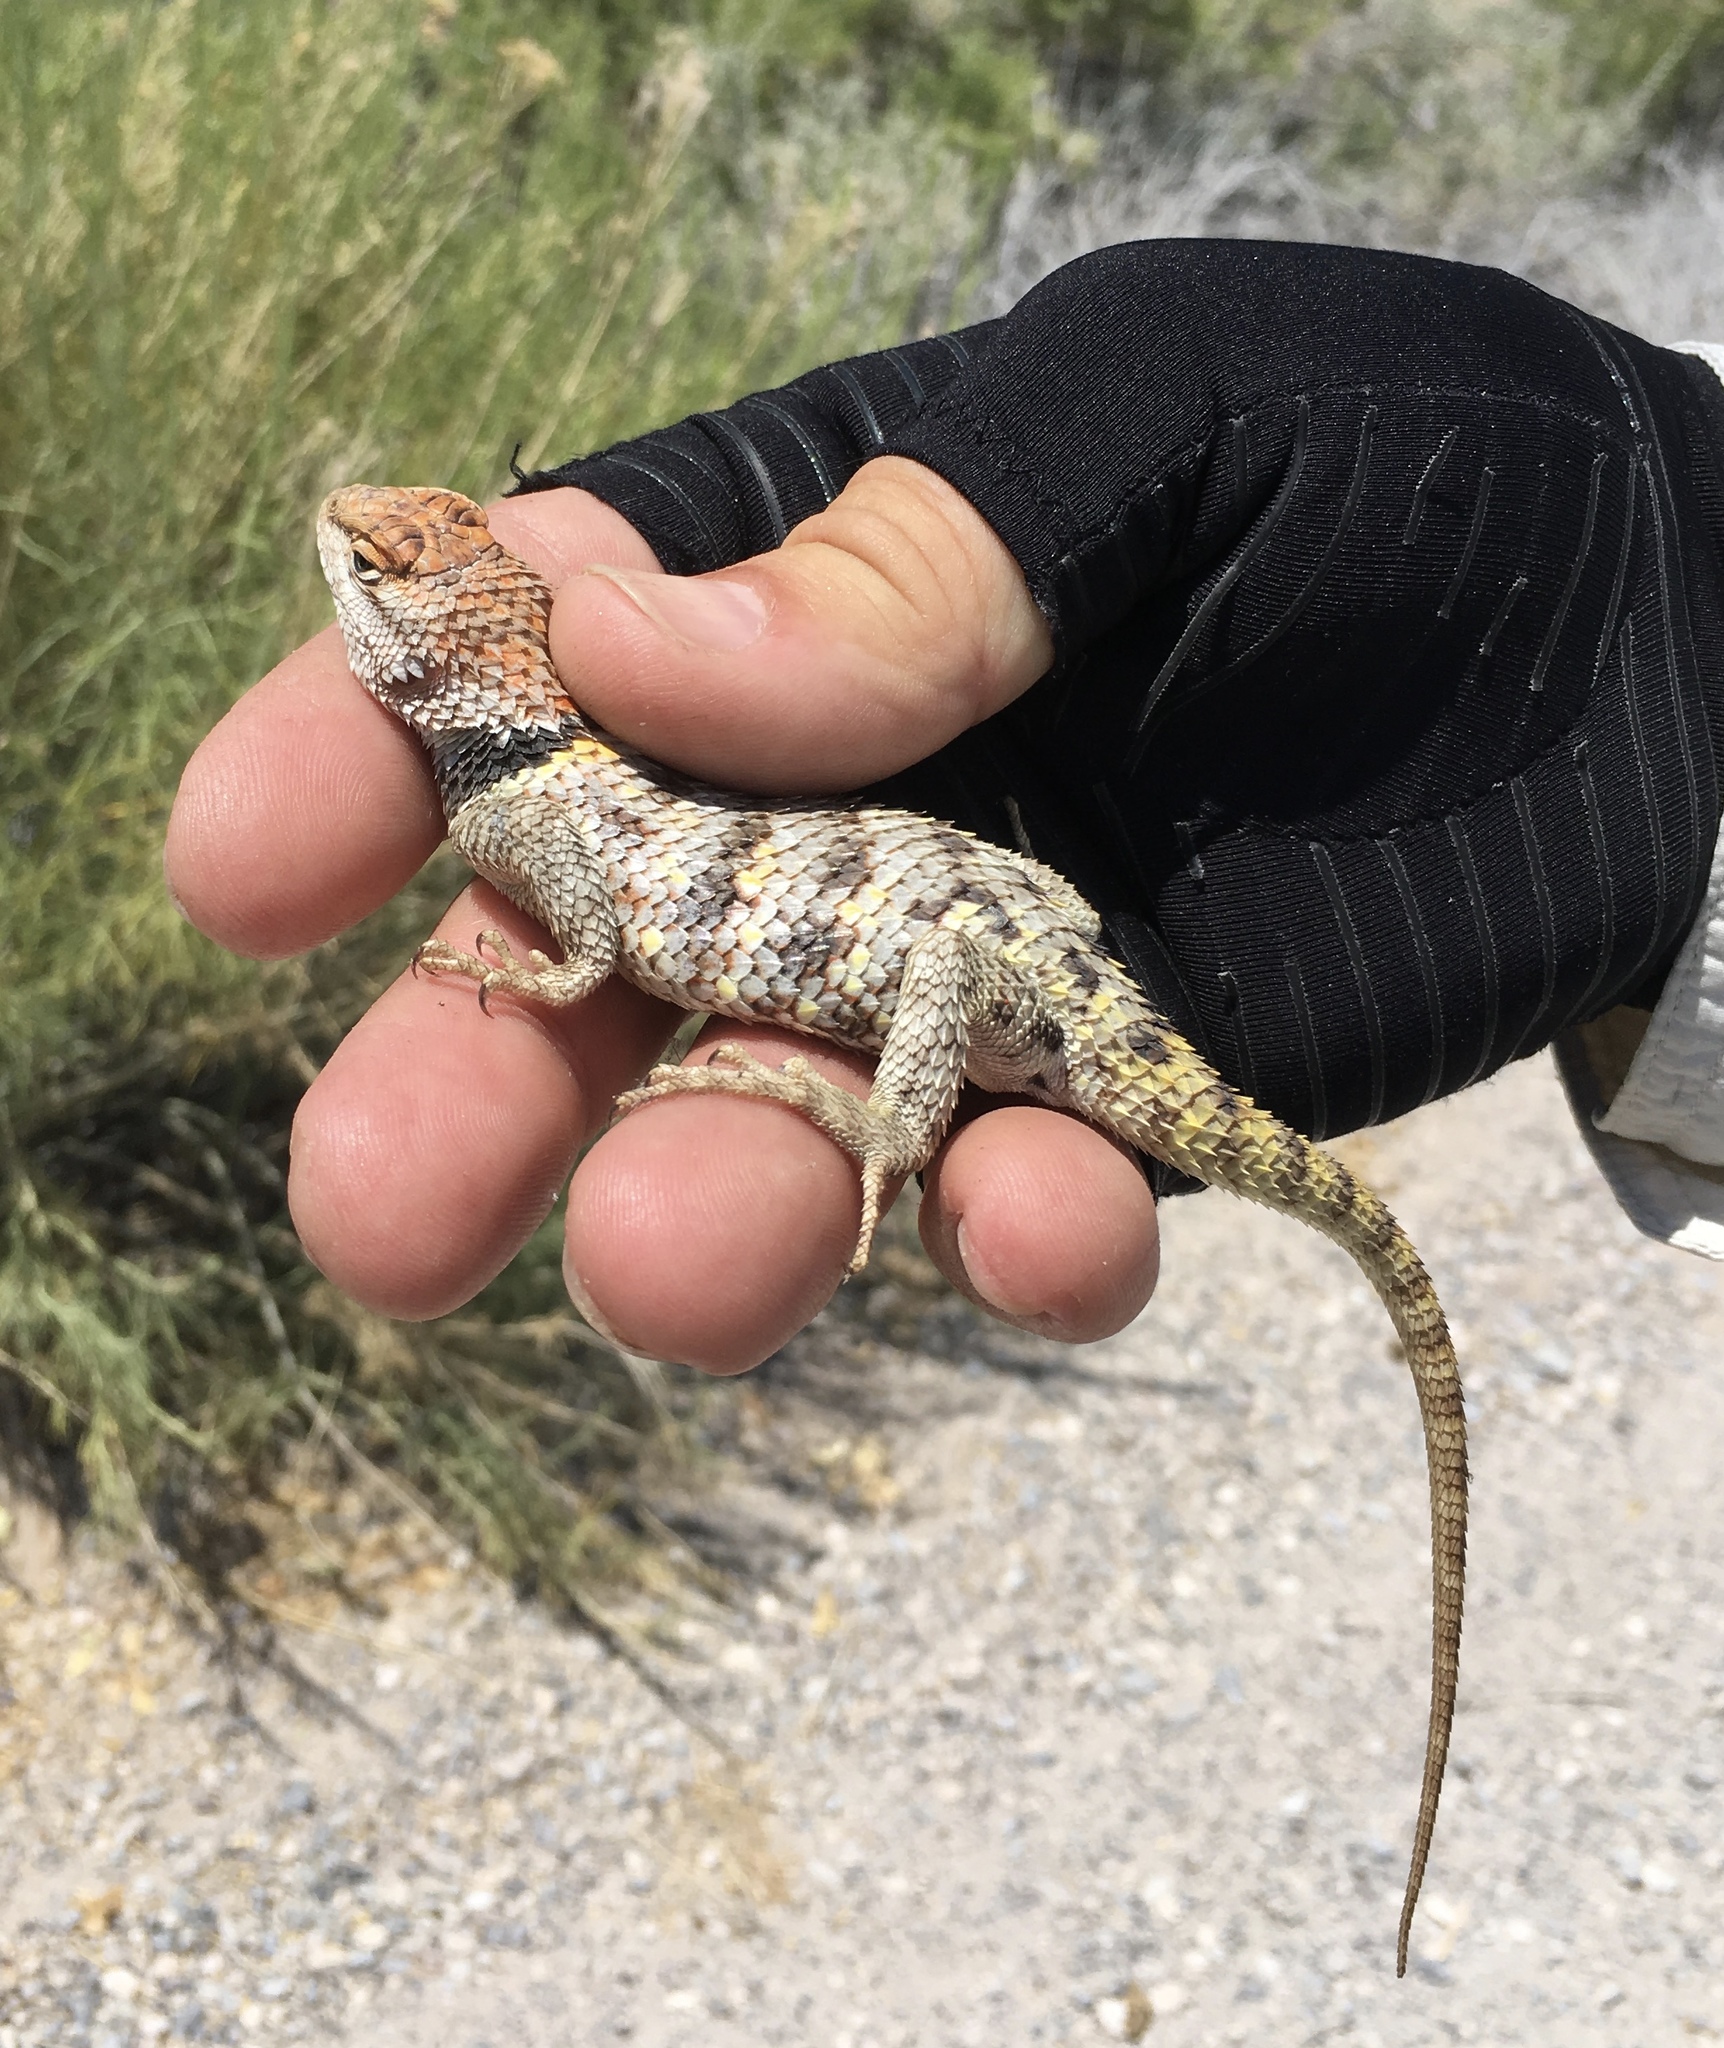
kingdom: Animalia
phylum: Chordata
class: Squamata
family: Phrynosomatidae
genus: Sceloporus
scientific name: Sceloporus uniformis
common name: Yellow-backed spiny lizard
